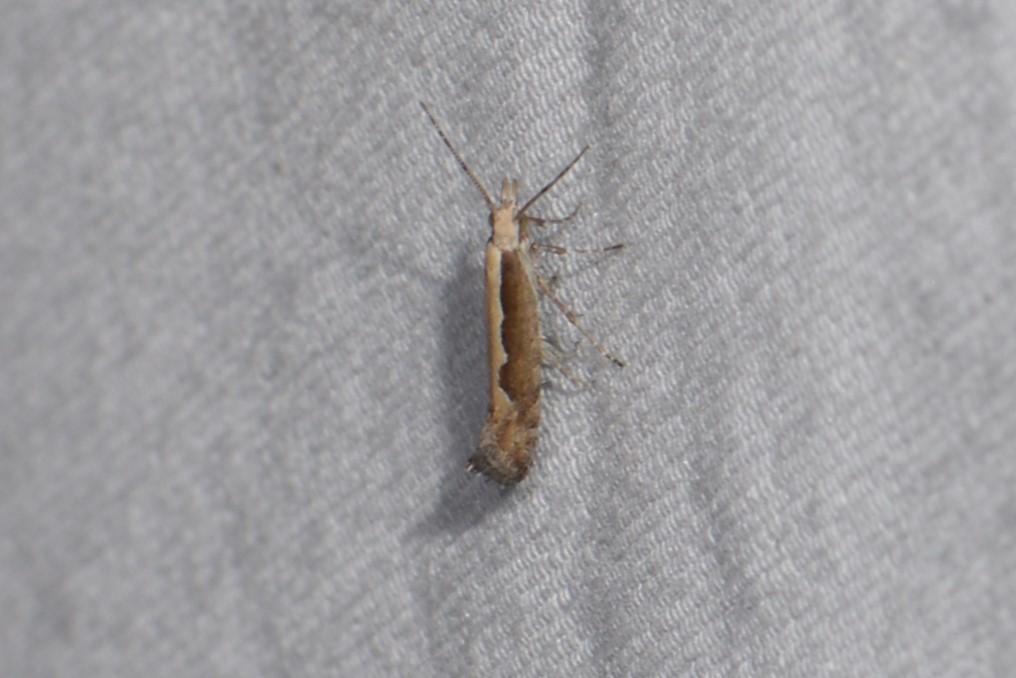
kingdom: Animalia
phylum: Arthropoda
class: Insecta
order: Lepidoptera
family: Plutellidae
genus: Plutella
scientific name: Plutella xylostella
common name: Diamond-back moth
